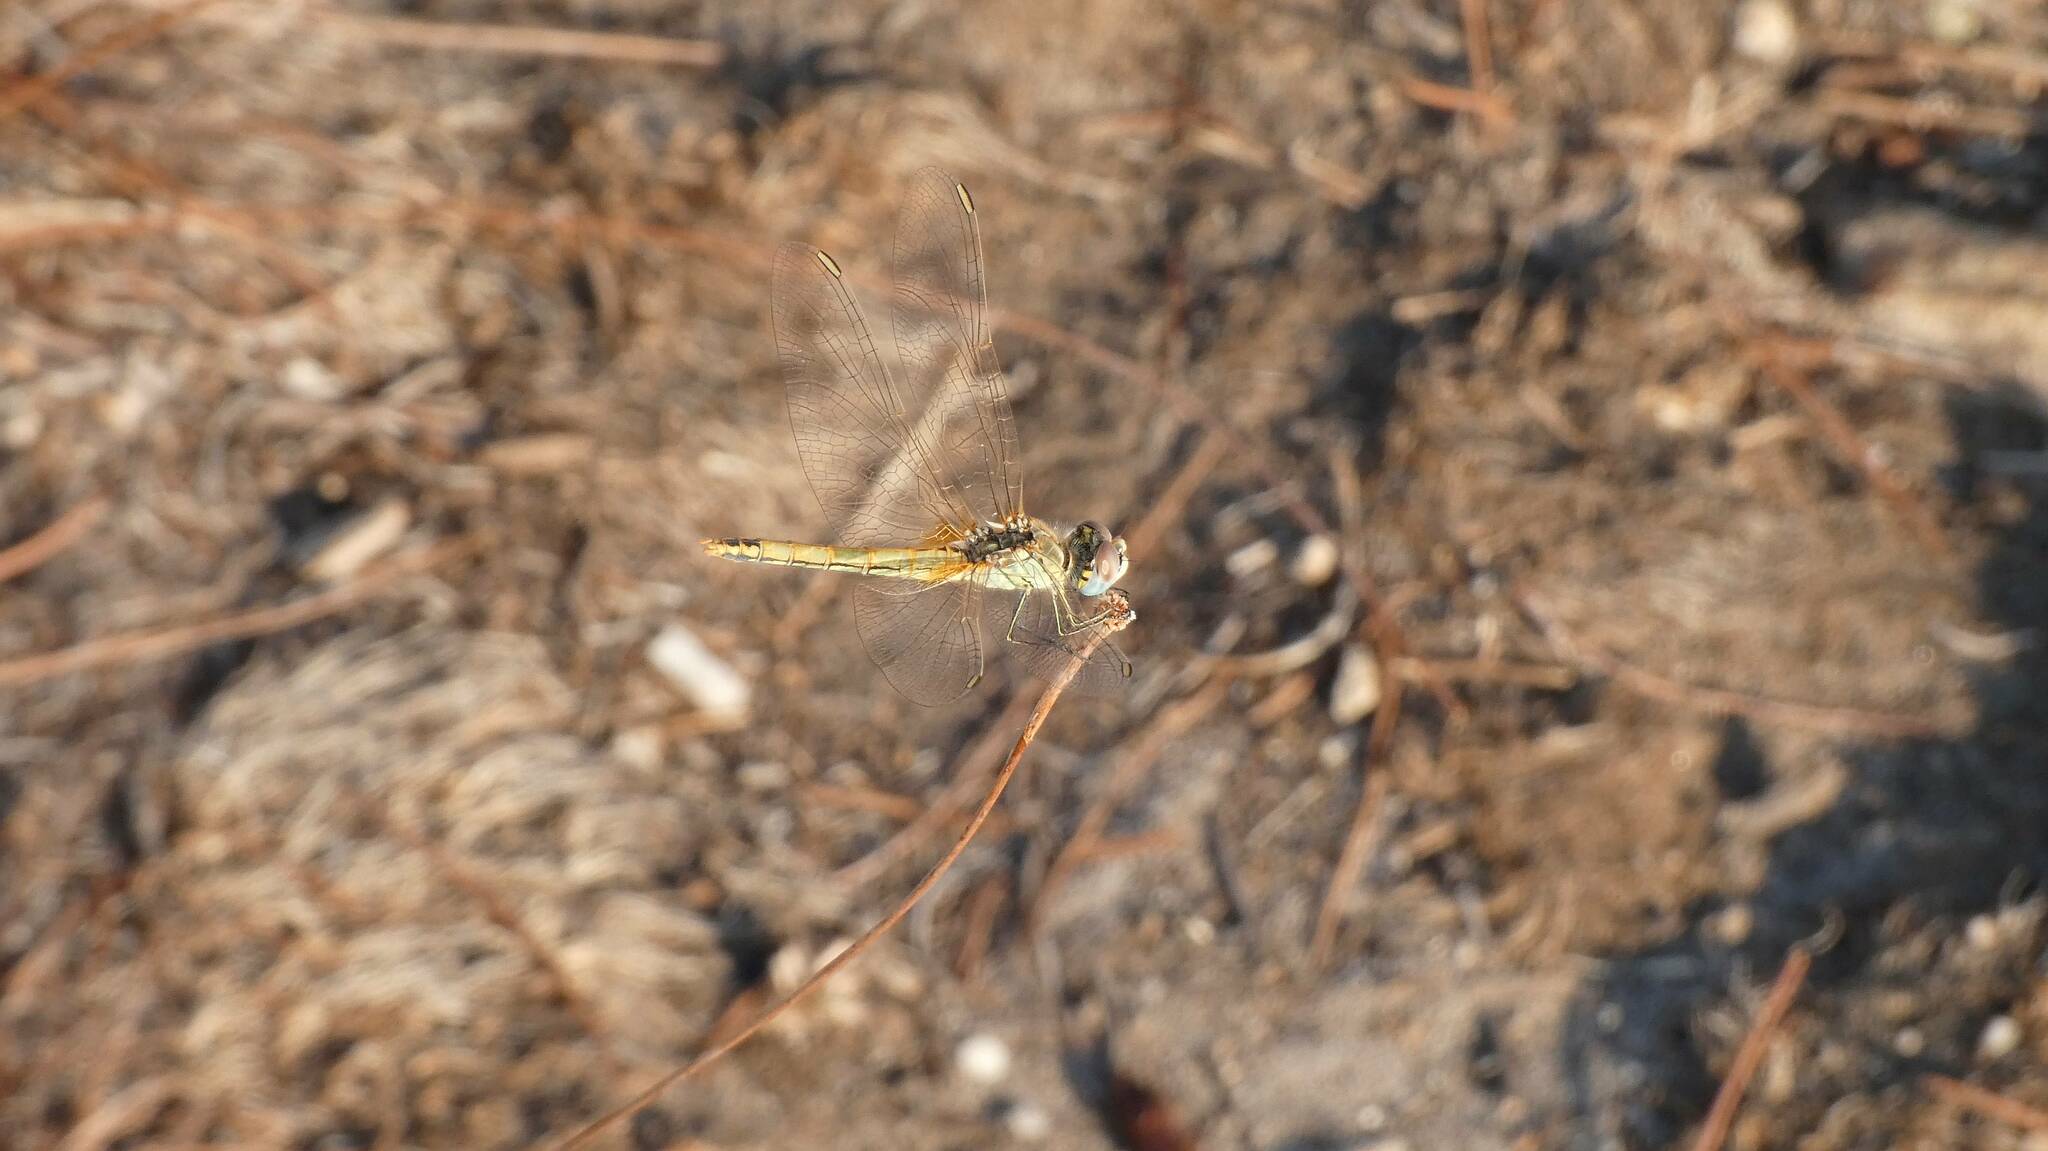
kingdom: Animalia
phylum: Arthropoda
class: Insecta
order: Odonata
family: Libellulidae
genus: Sympetrum
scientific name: Sympetrum fonscolombii
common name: Red-veined darter
